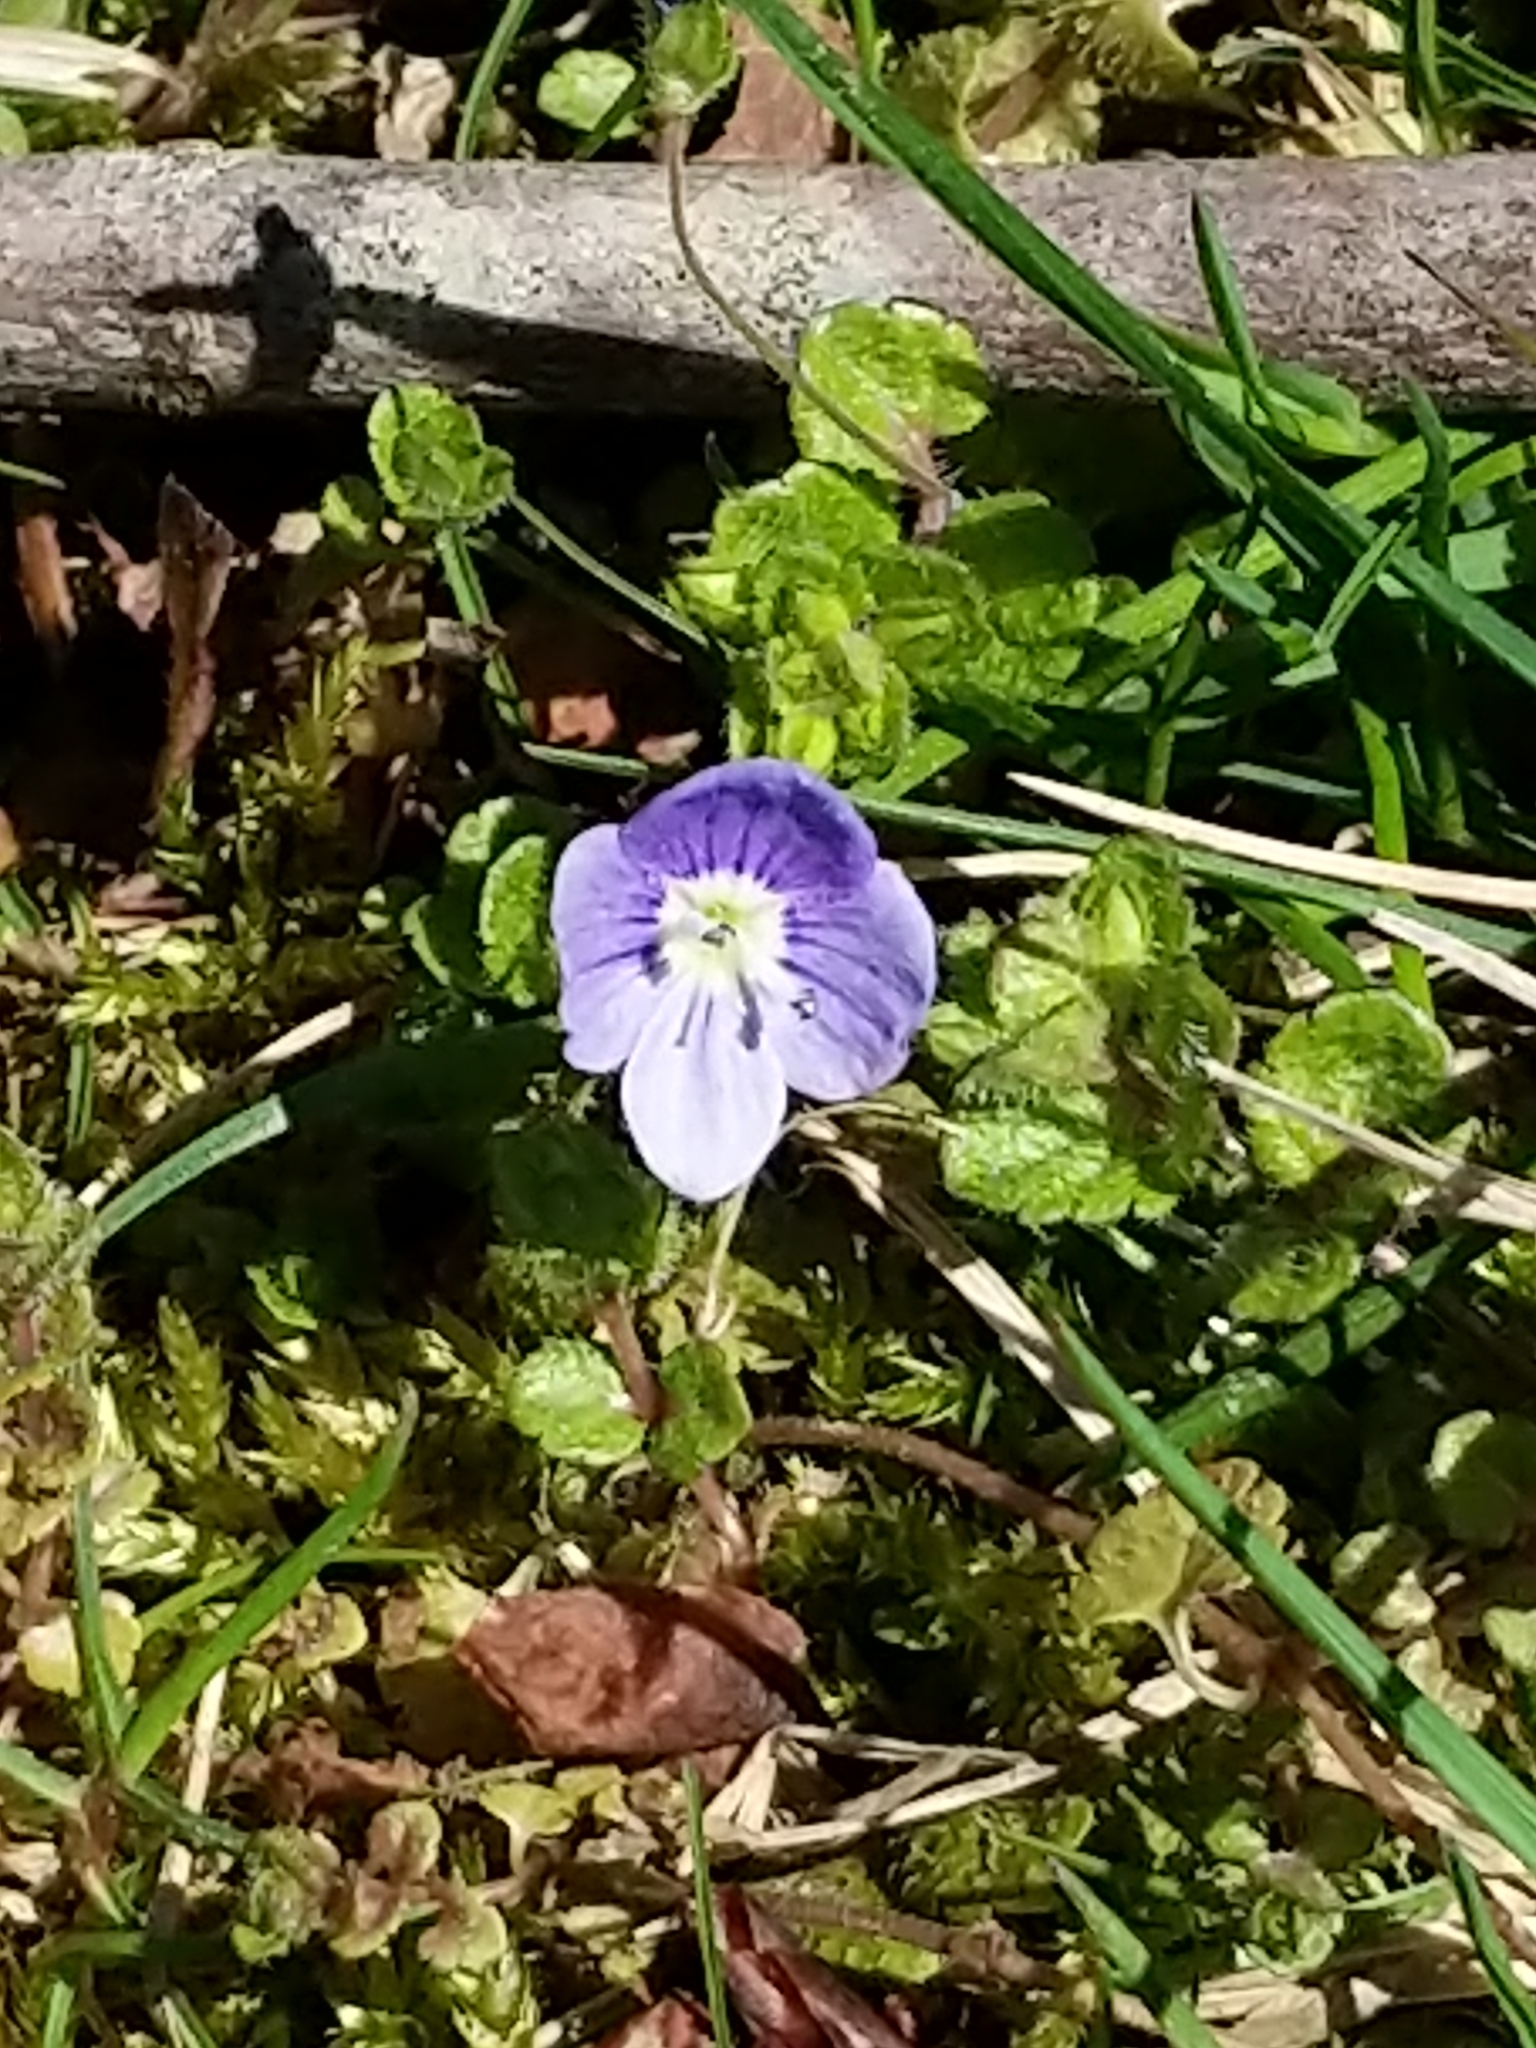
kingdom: Plantae
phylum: Tracheophyta
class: Magnoliopsida
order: Lamiales
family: Plantaginaceae
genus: Veronica
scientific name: Veronica filiformis
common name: Slender speedwell
